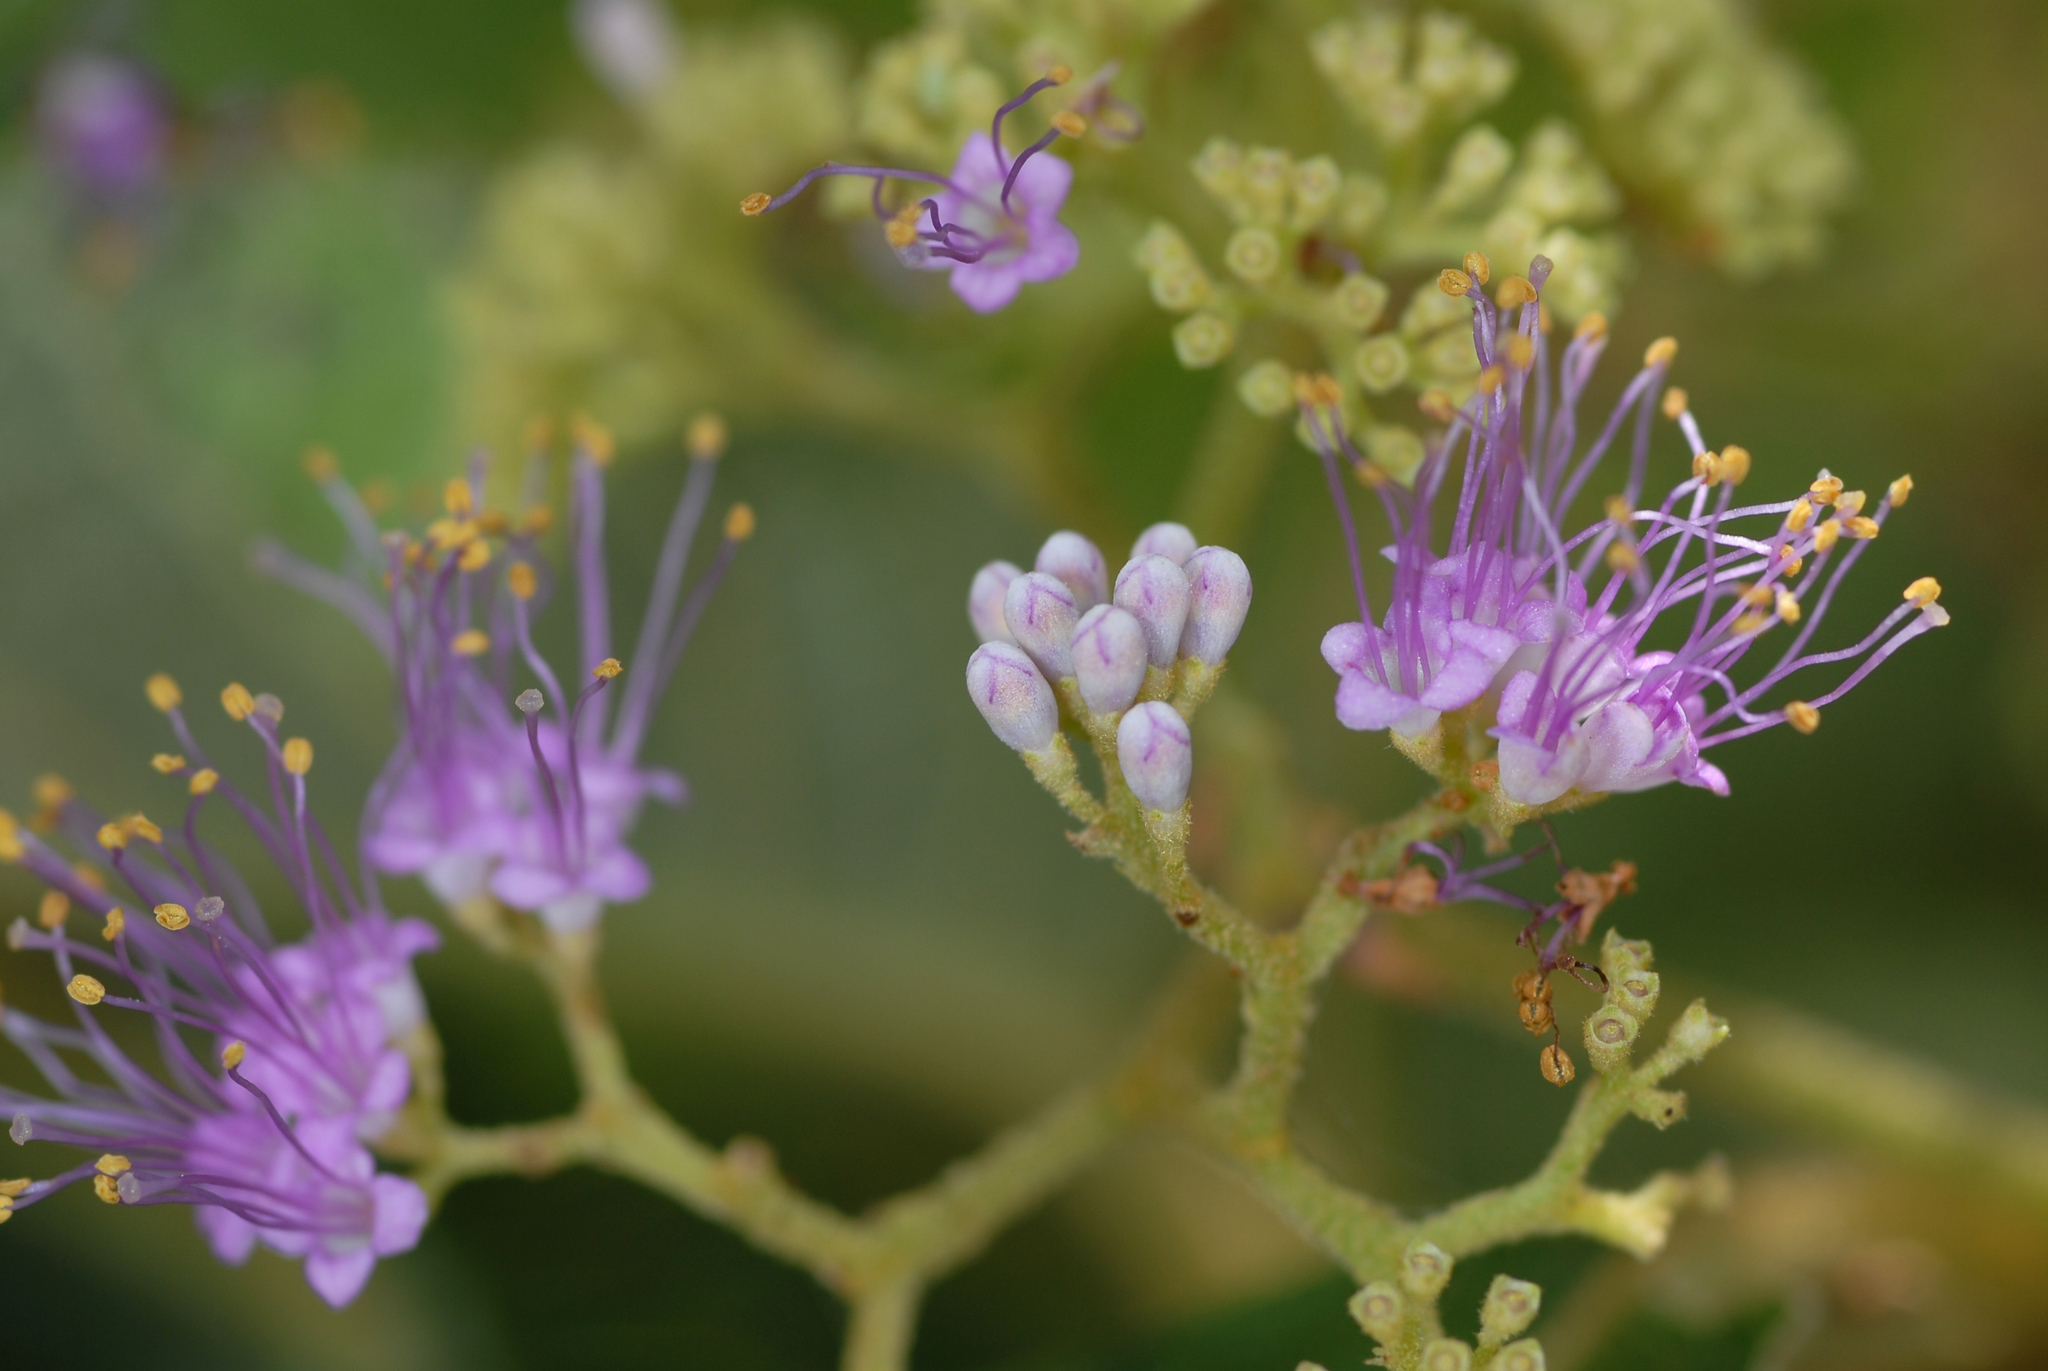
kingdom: Plantae
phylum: Tracheophyta
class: Magnoliopsida
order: Lamiales
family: Lamiaceae
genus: Callicarpa
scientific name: Callicarpa pedunculata
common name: Velvetleaf
